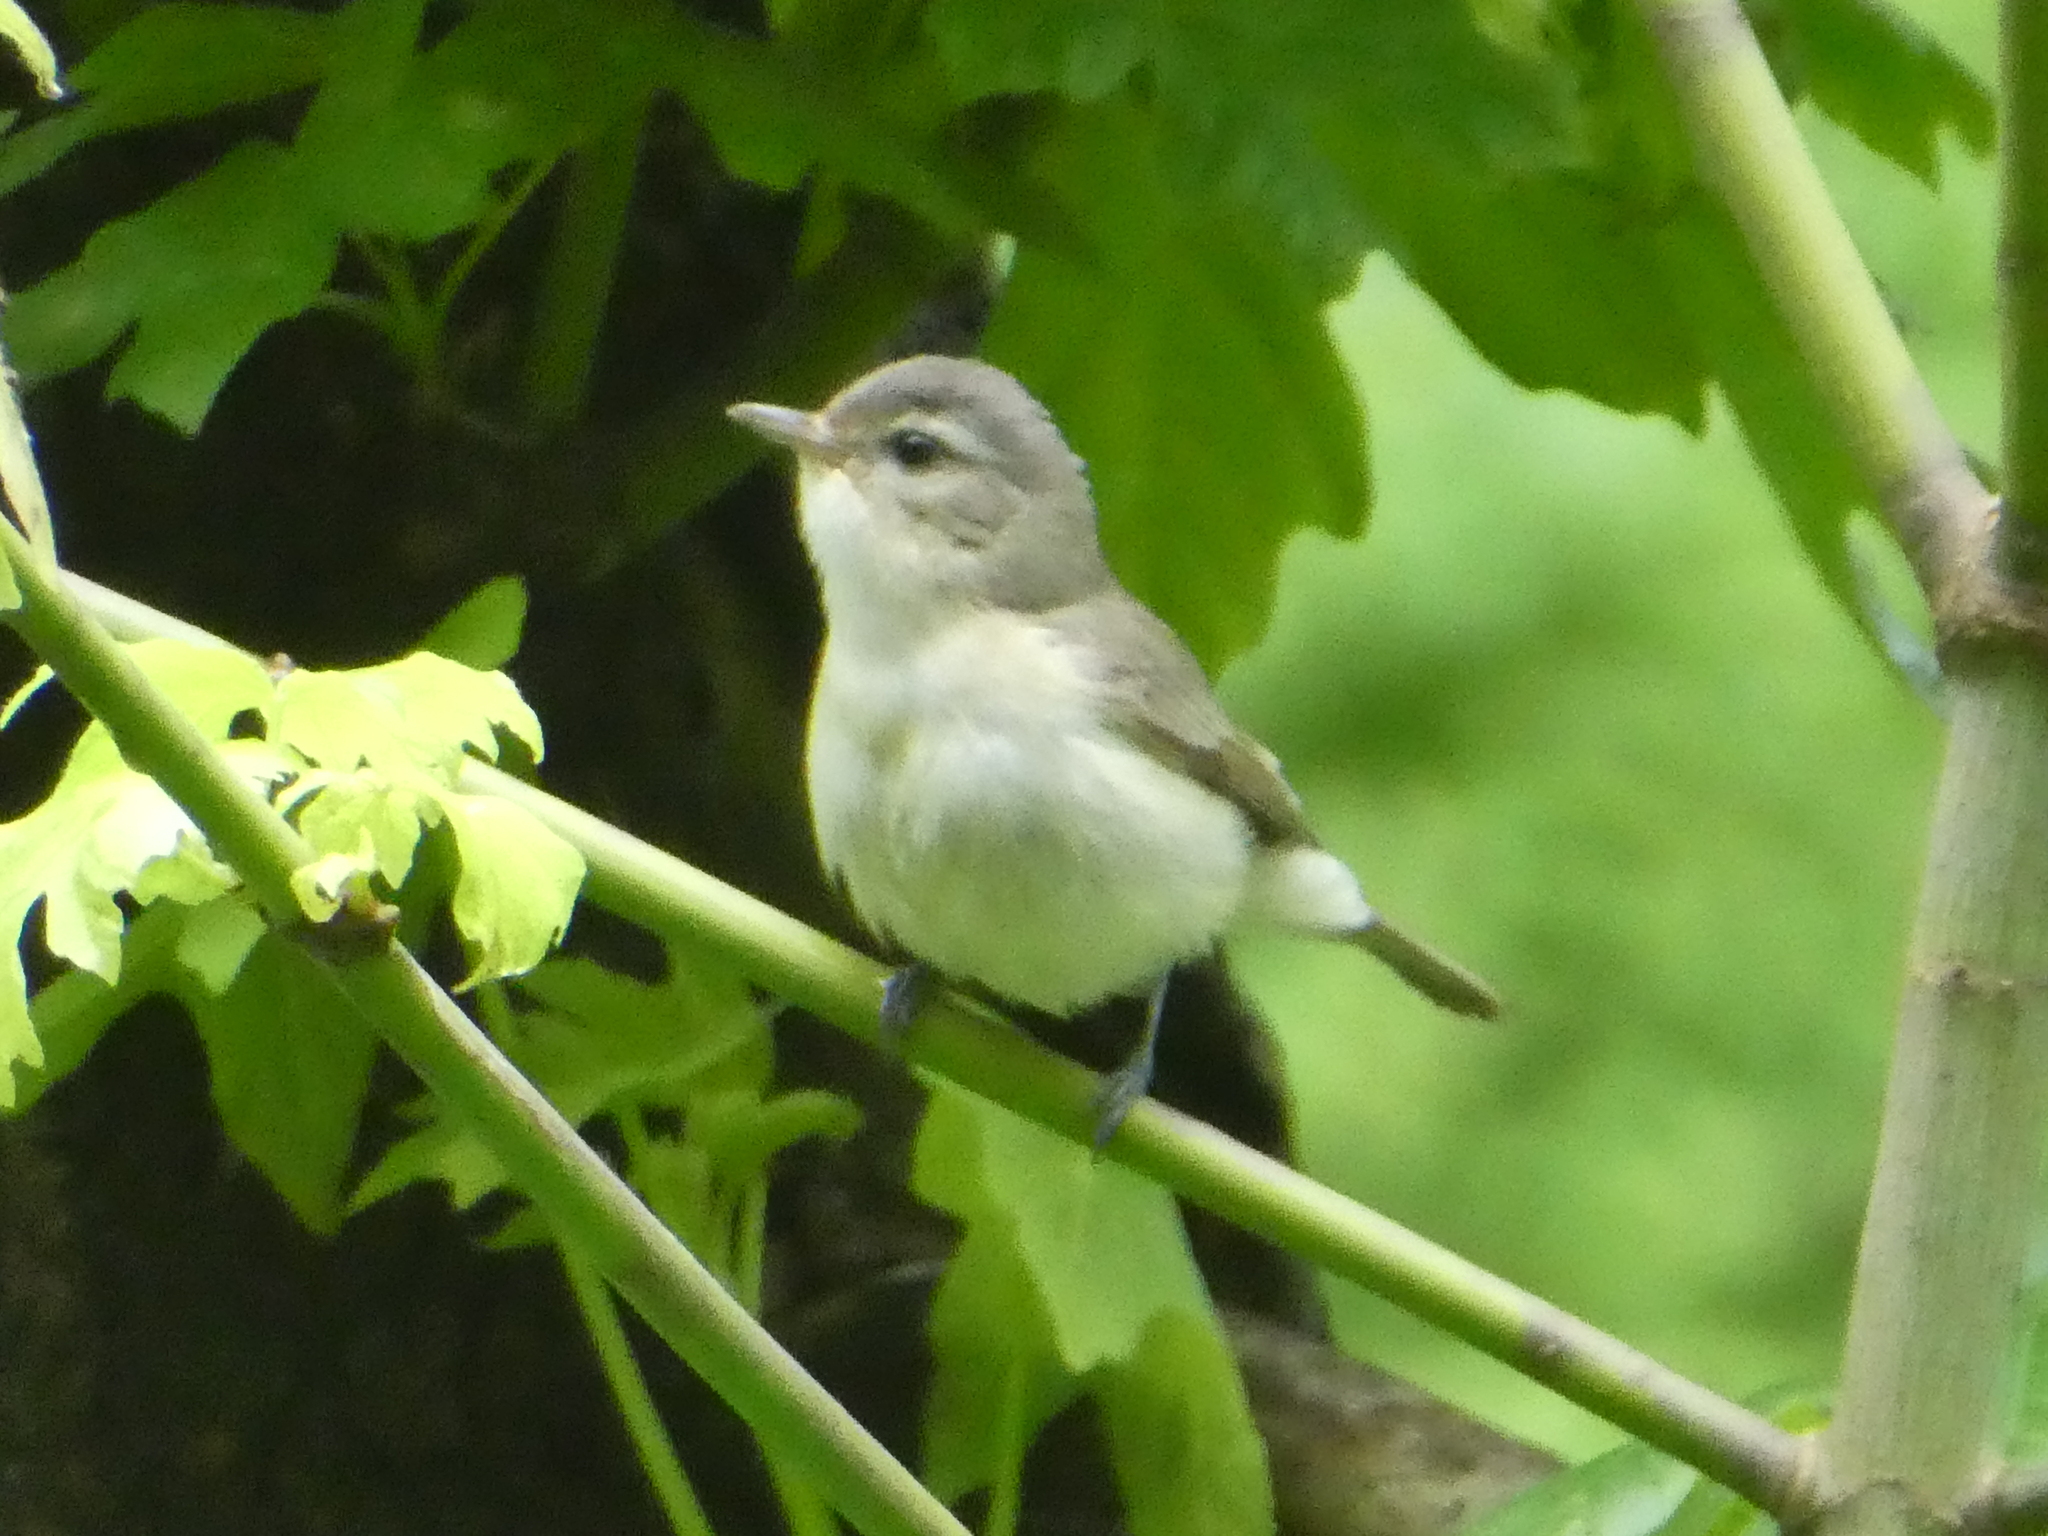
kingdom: Animalia
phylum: Chordata
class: Aves
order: Passeriformes
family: Vireonidae
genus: Vireo
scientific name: Vireo gilvus
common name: Warbling vireo
